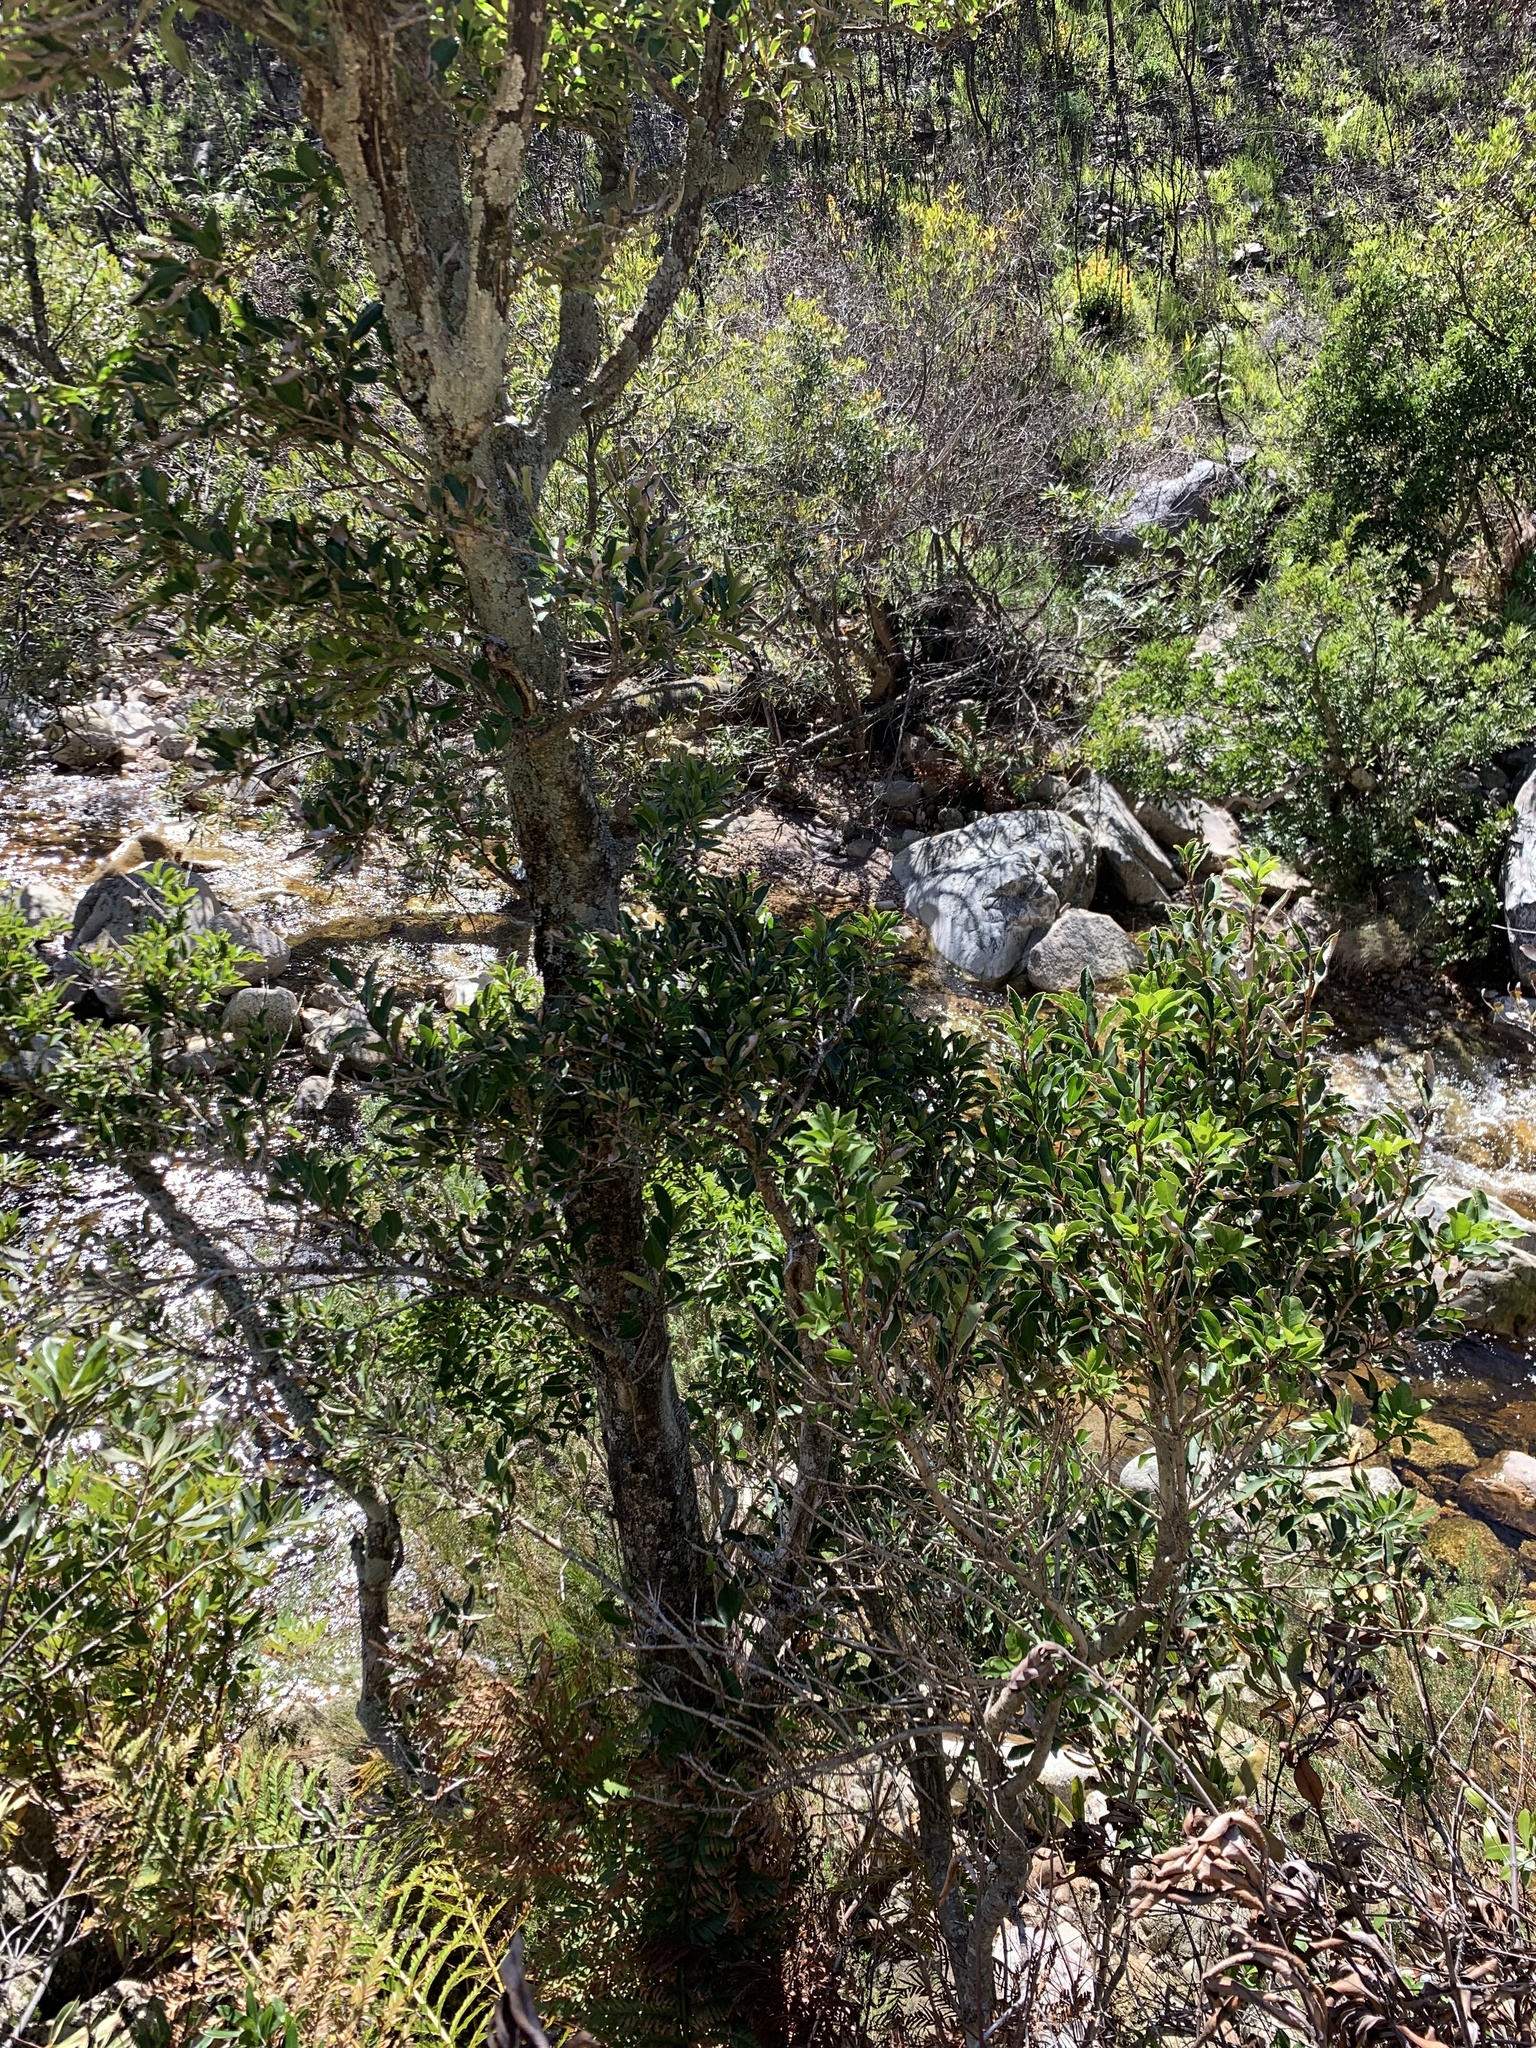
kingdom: Plantae
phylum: Tracheophyta
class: Magnoliopsida
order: Aquifoliales
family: Aquifoliaceae
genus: Ilex
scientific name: Ilex mitis
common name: African holly
